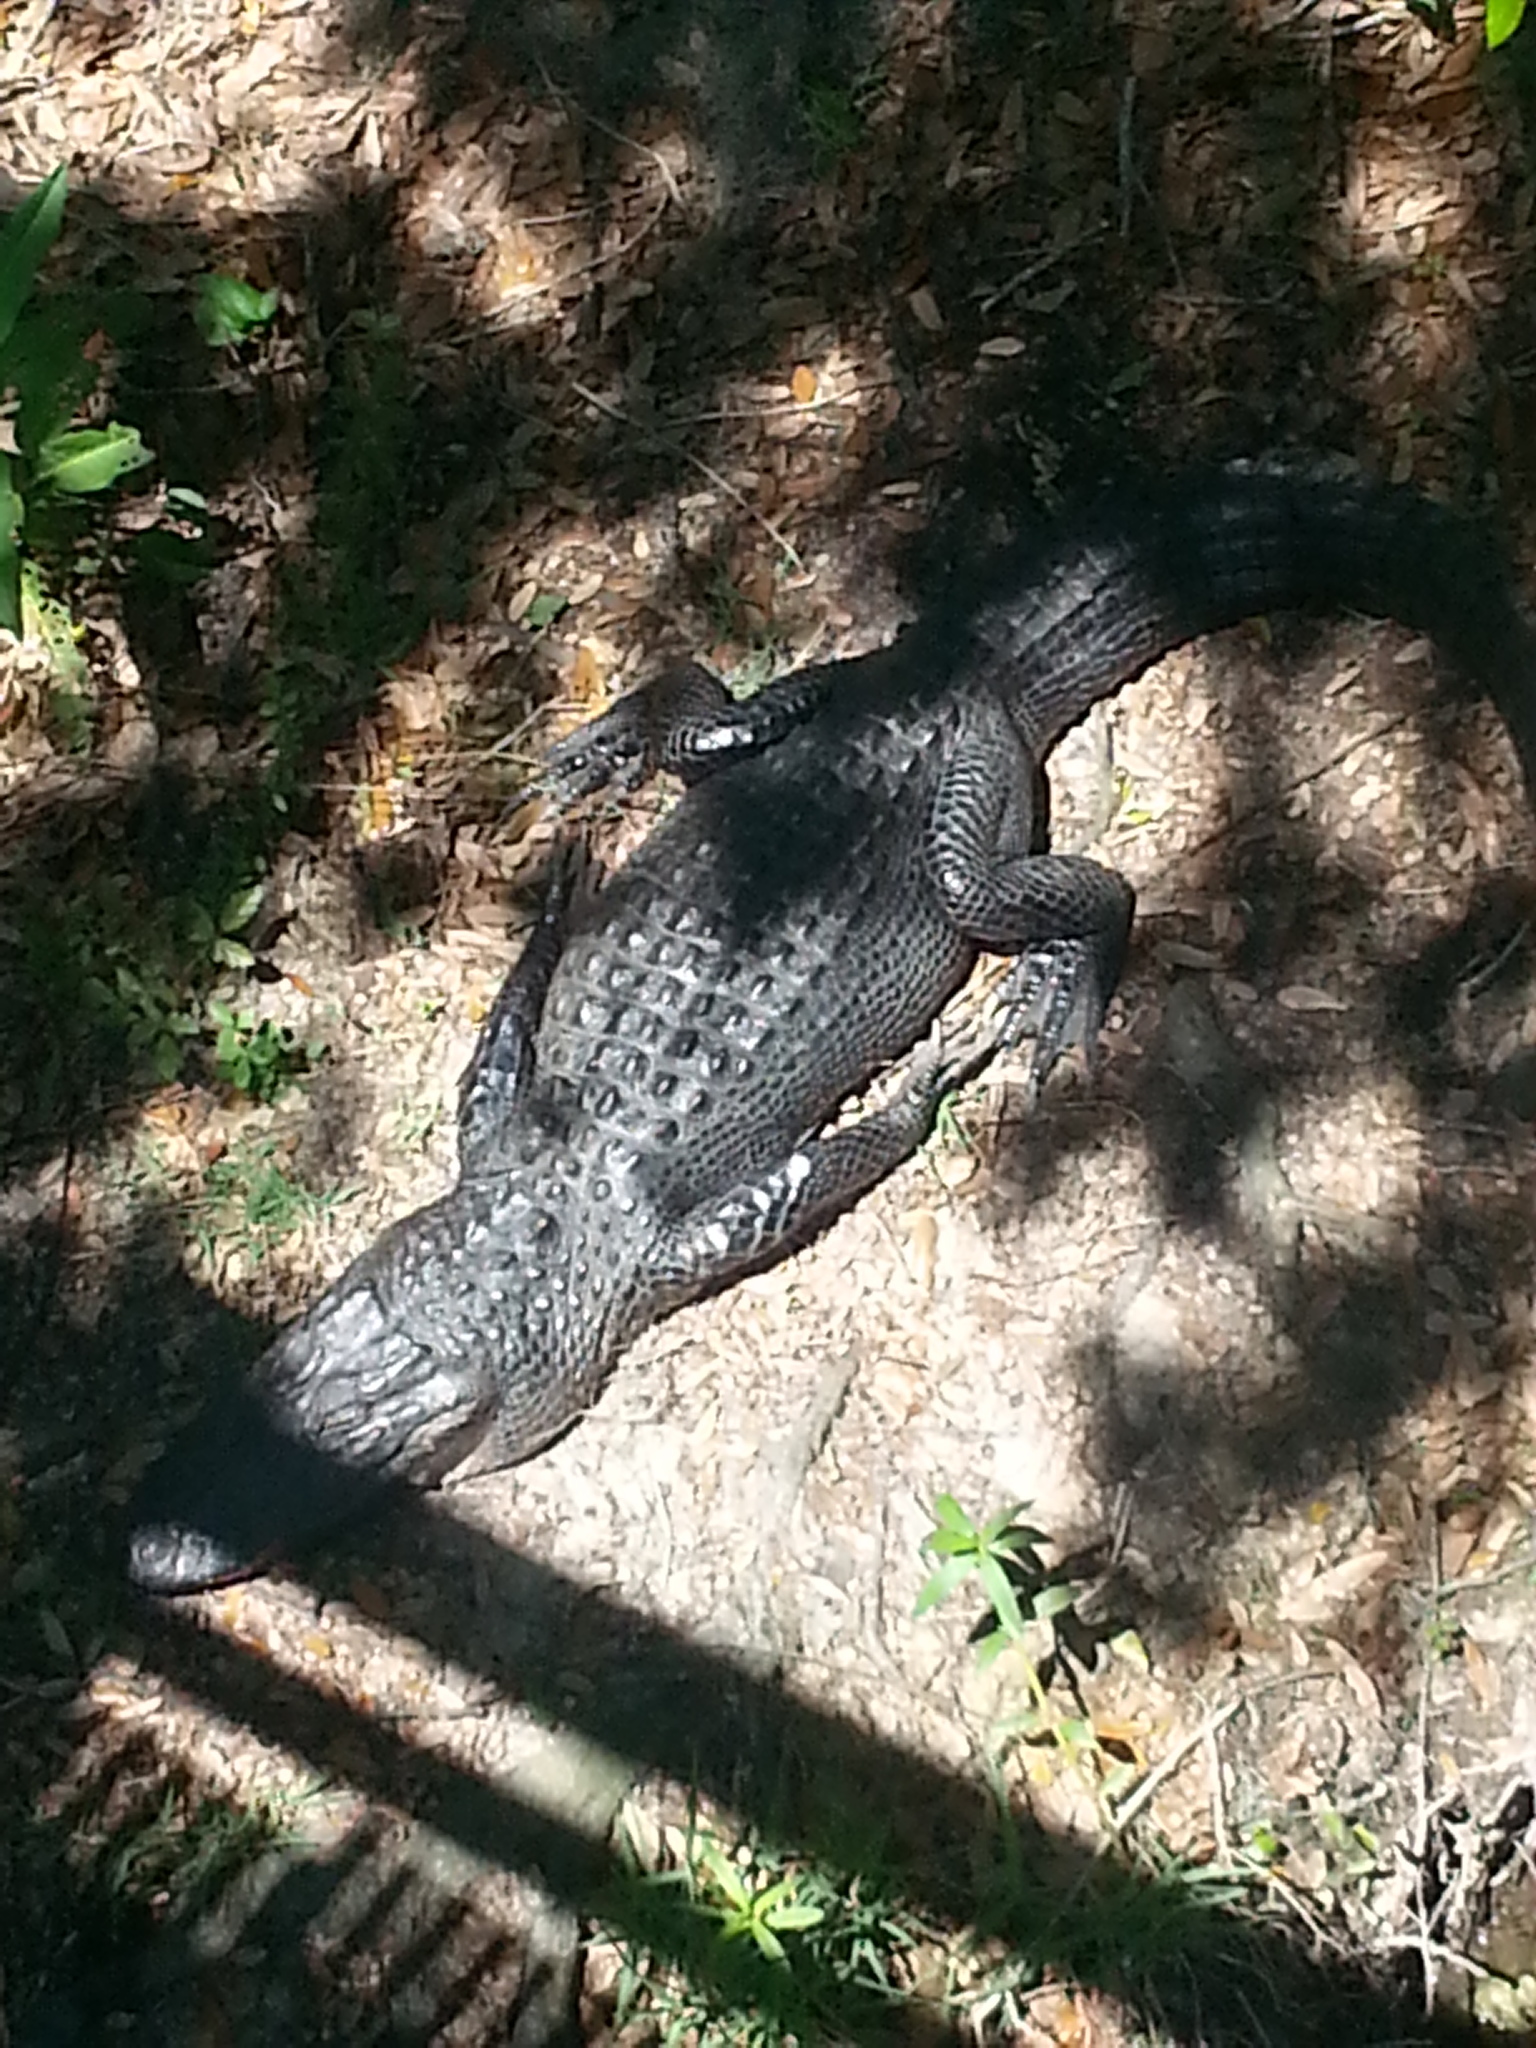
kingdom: Animalia
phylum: Chordata
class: Crocodylia
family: Alligatoridae
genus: Alligator
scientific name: Alligator mississippiensis
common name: American alligator
